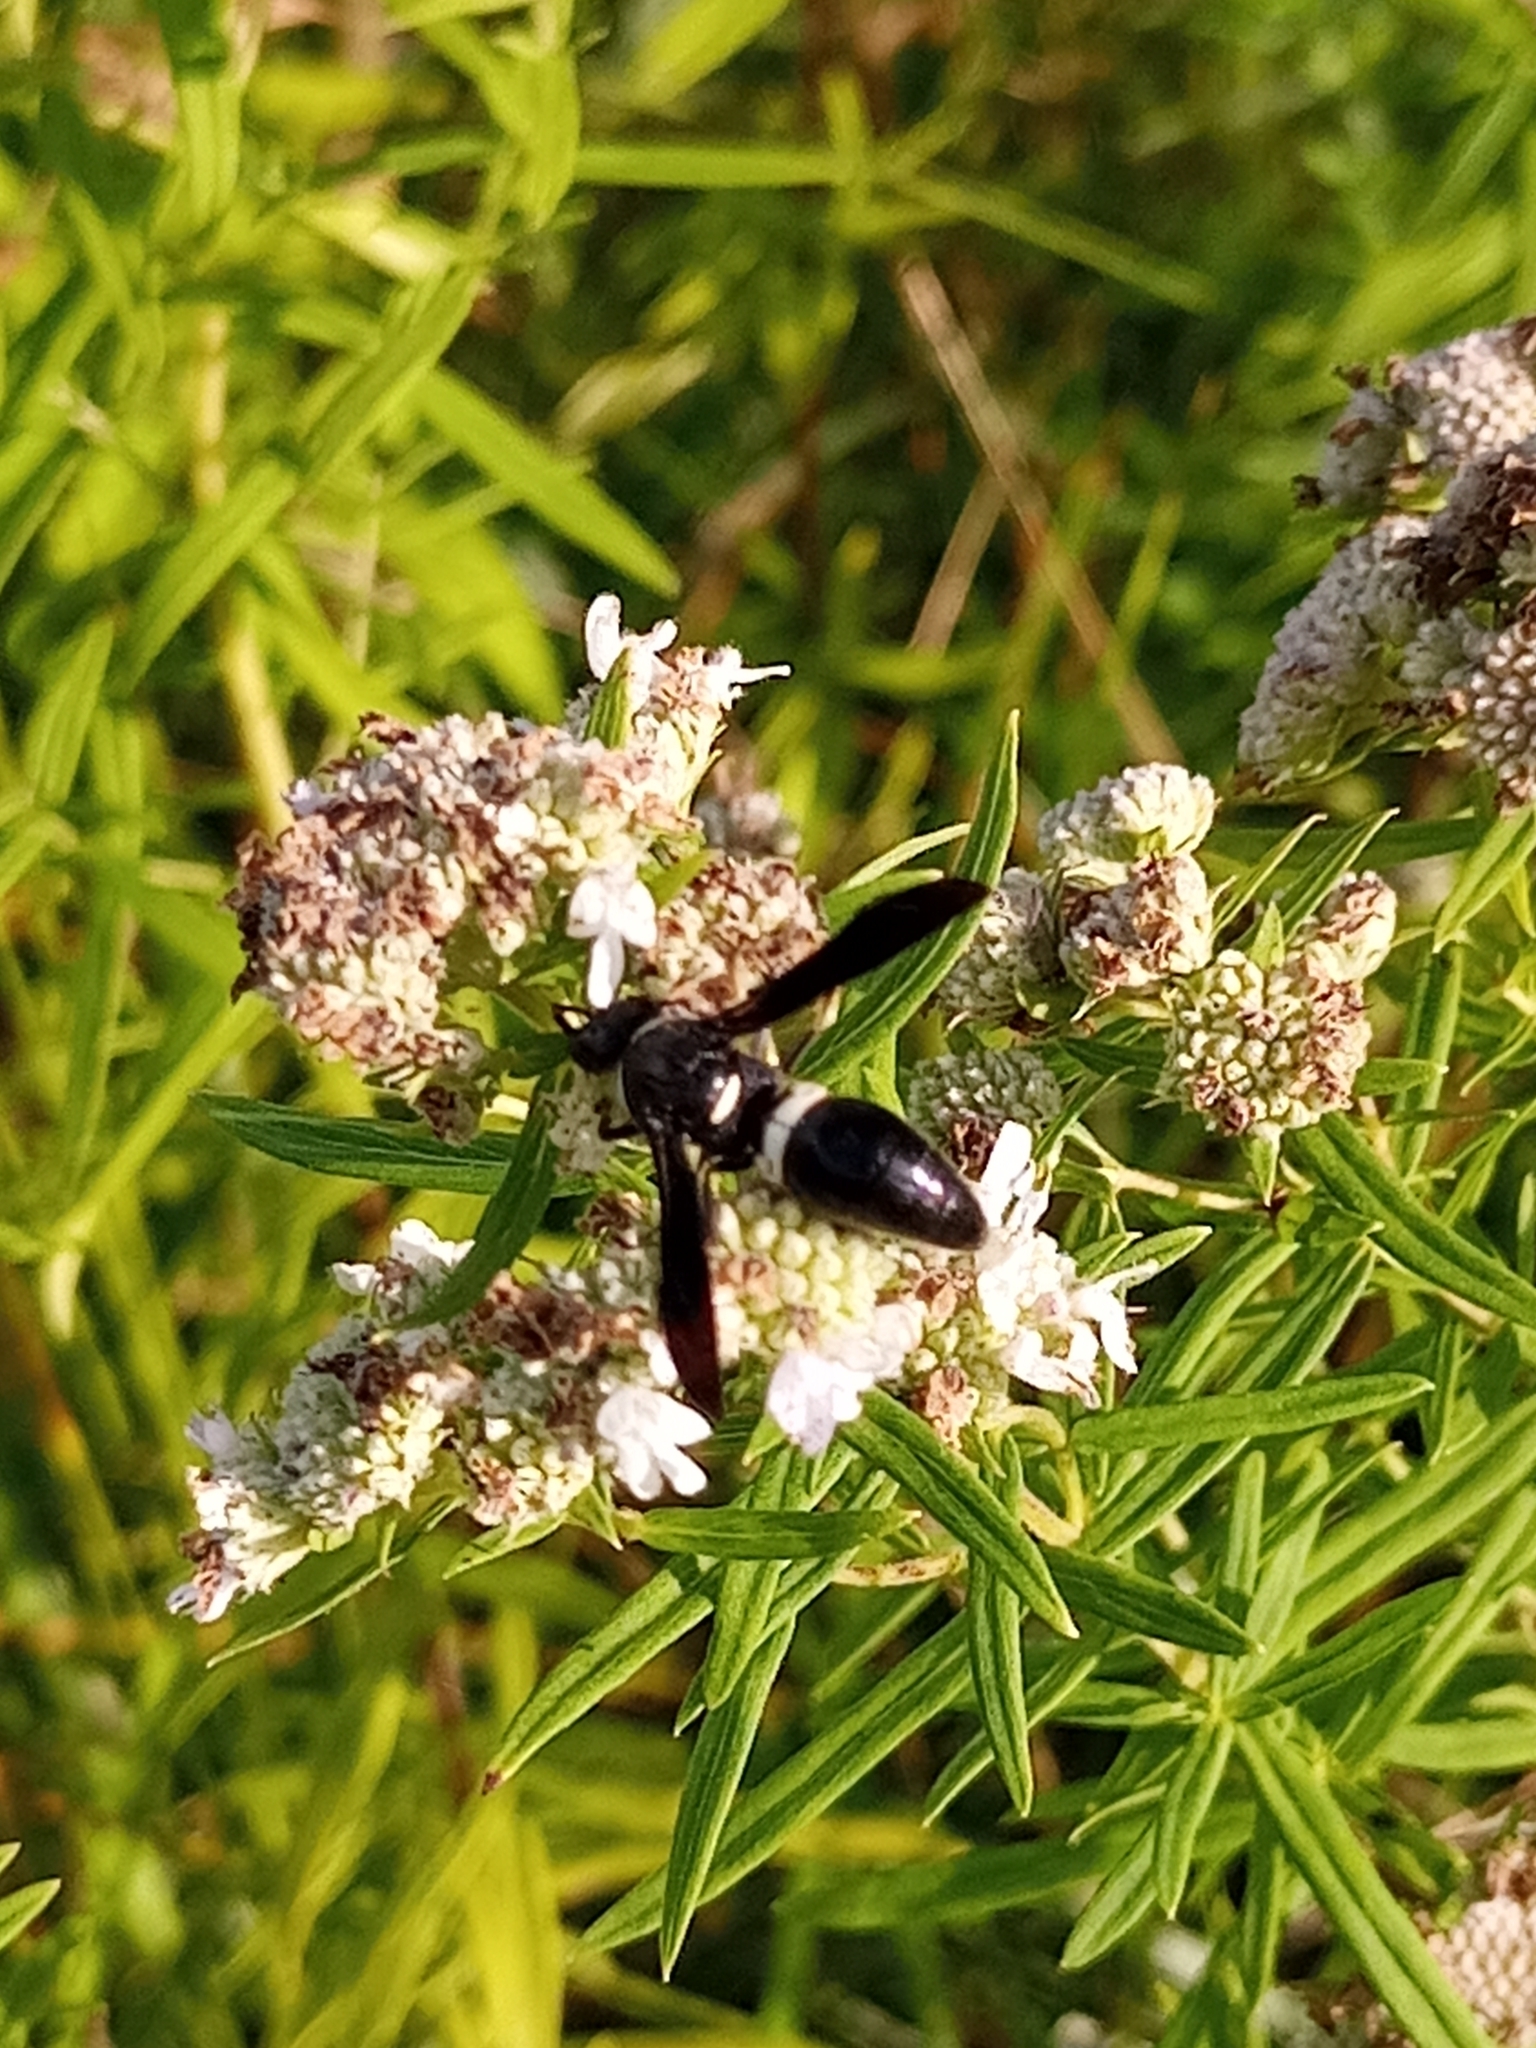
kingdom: Animalia
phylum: Arthropoda
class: Insecta
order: Hymenoptera
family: Eumenidae
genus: Monobia
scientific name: Monobia quadridens
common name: Four-toothed mason wasp
